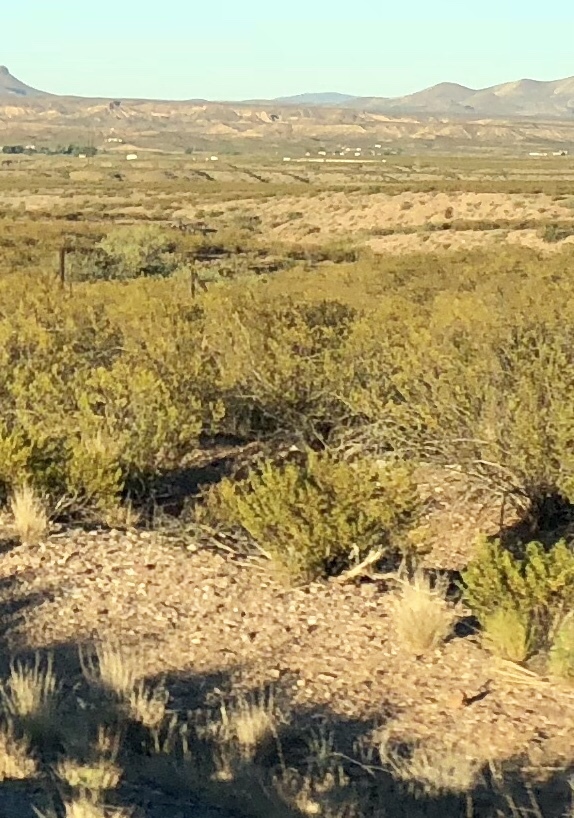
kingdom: Plantae
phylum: Tracheophyta
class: Magnoliopsida
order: Zygophyllales
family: Zygophyllaceae
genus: Larrea
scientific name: Larrea tridentata
